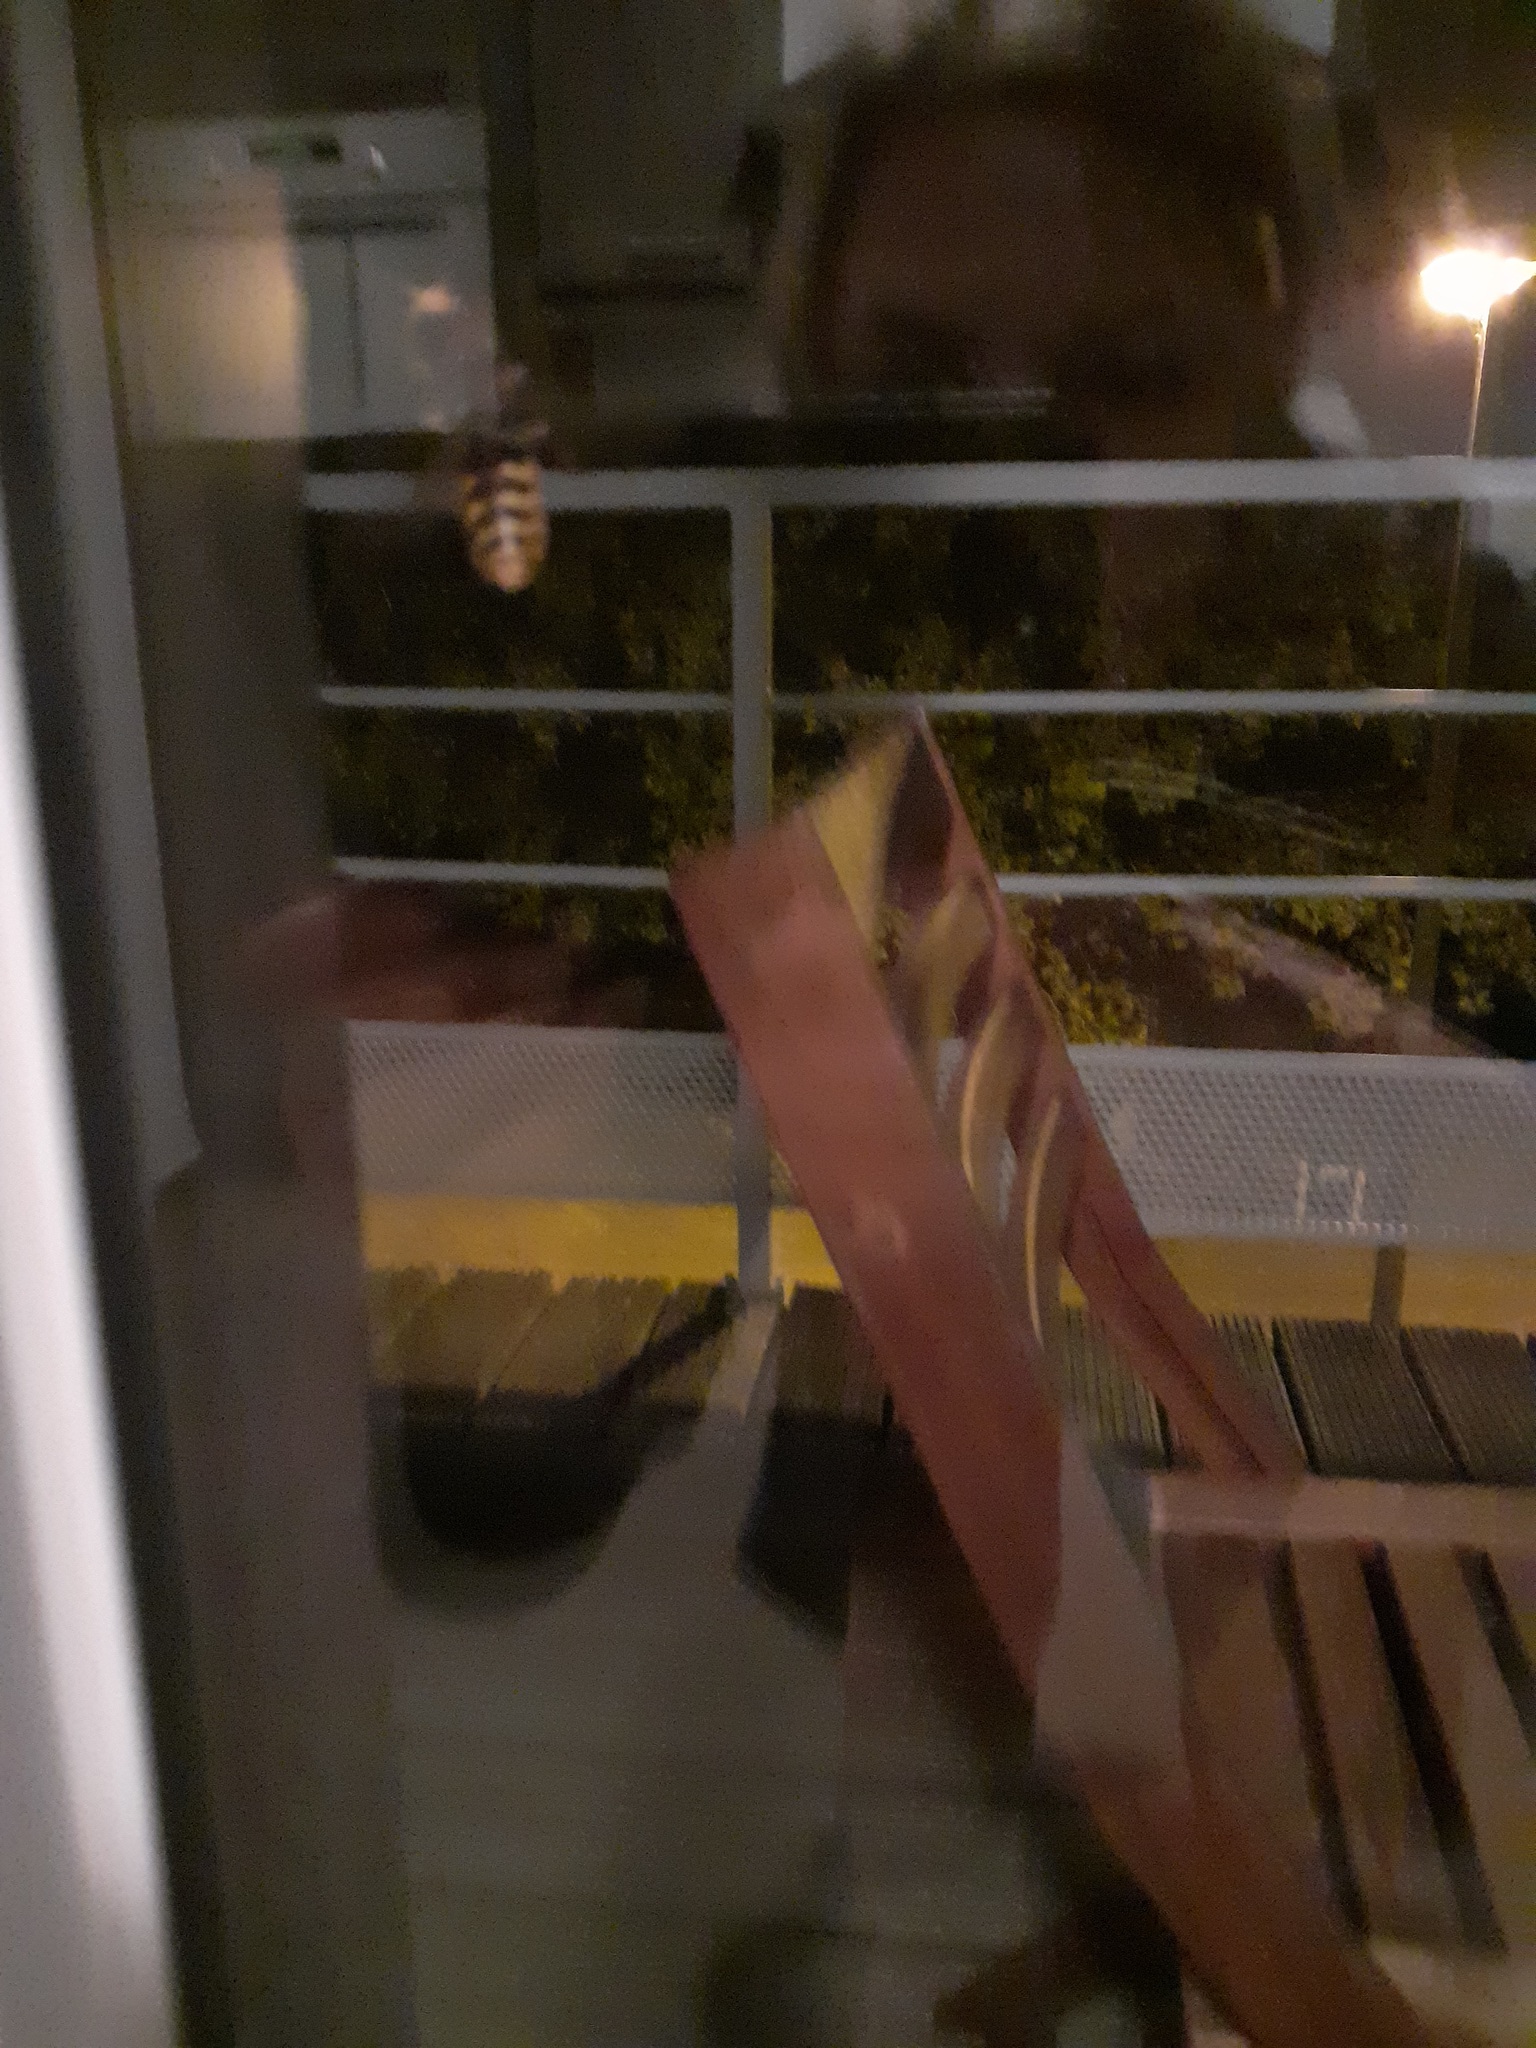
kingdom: Animalia
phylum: Arthropoda
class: Insecta
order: Hymenoptera
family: Vespidae
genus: Vespa
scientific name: Vespa crabro
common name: Hornet
